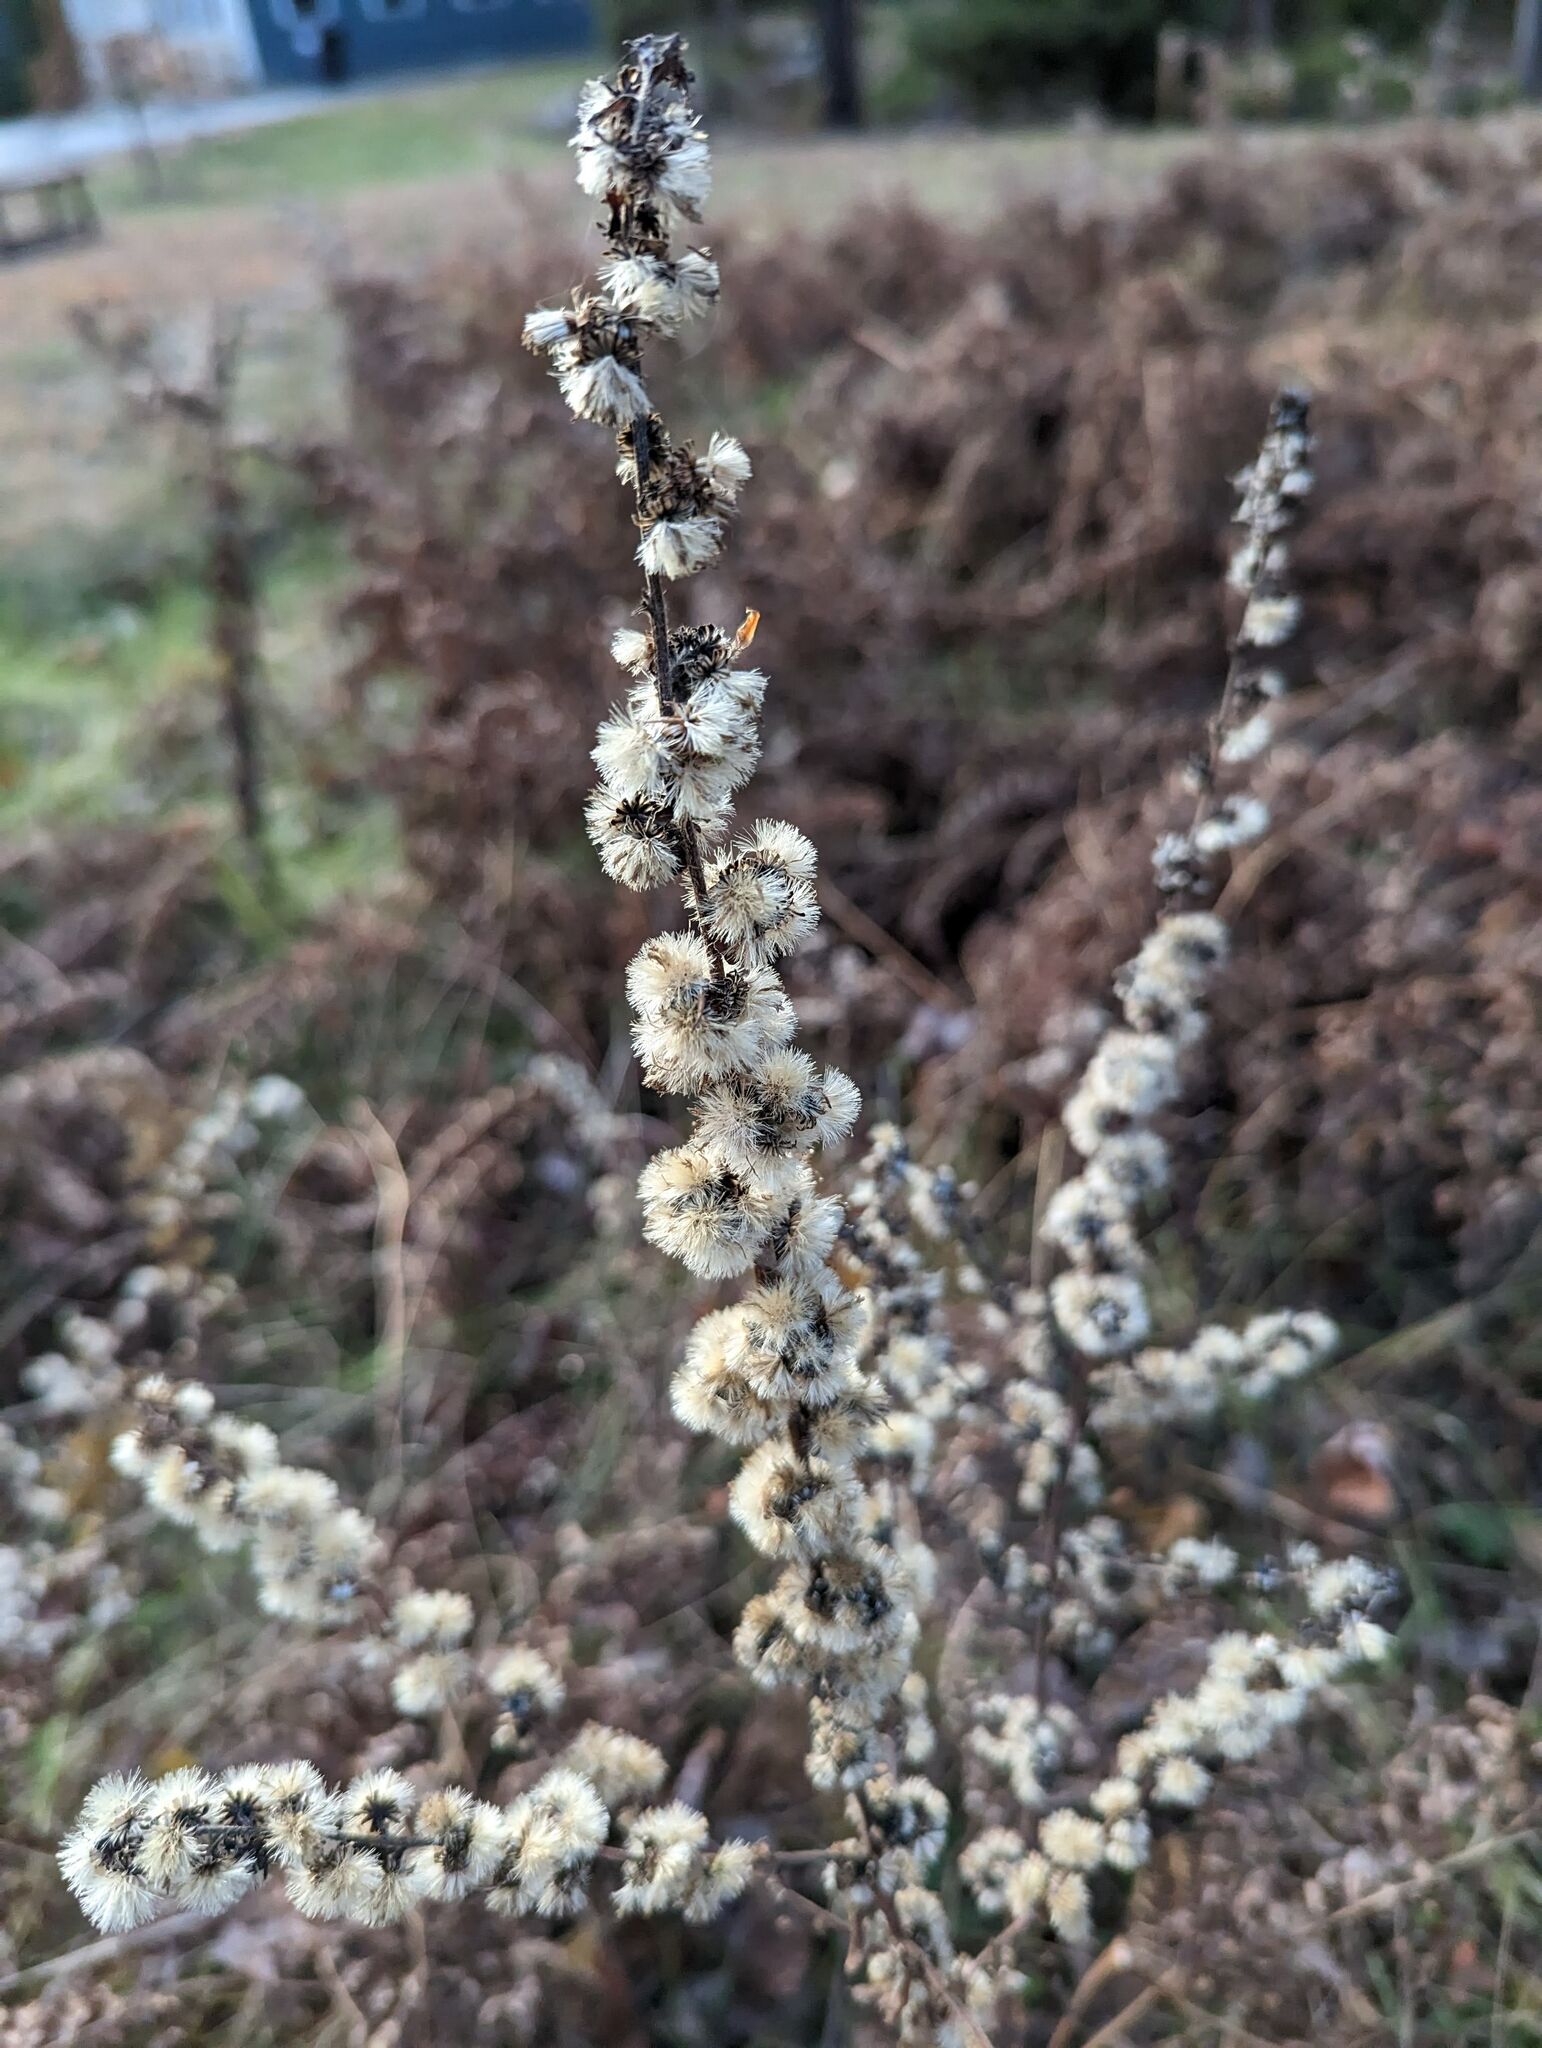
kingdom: Plantae
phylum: Tracheophyta
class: Magnoliopsida
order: Asterales
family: Asteraceae
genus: Solidago
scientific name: Solidago bicolor
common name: Silverrod
